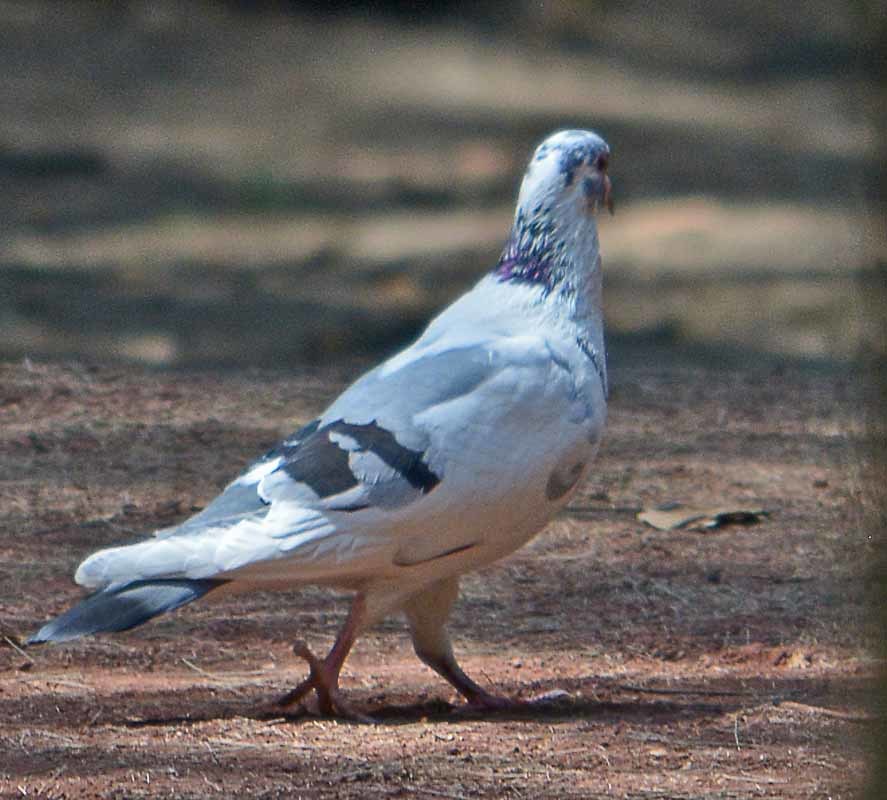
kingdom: Animalia
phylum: Chordata
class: Aves
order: Columbiformes
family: Columbidae
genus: Columba
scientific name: Columba livia
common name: Rock pigeon
